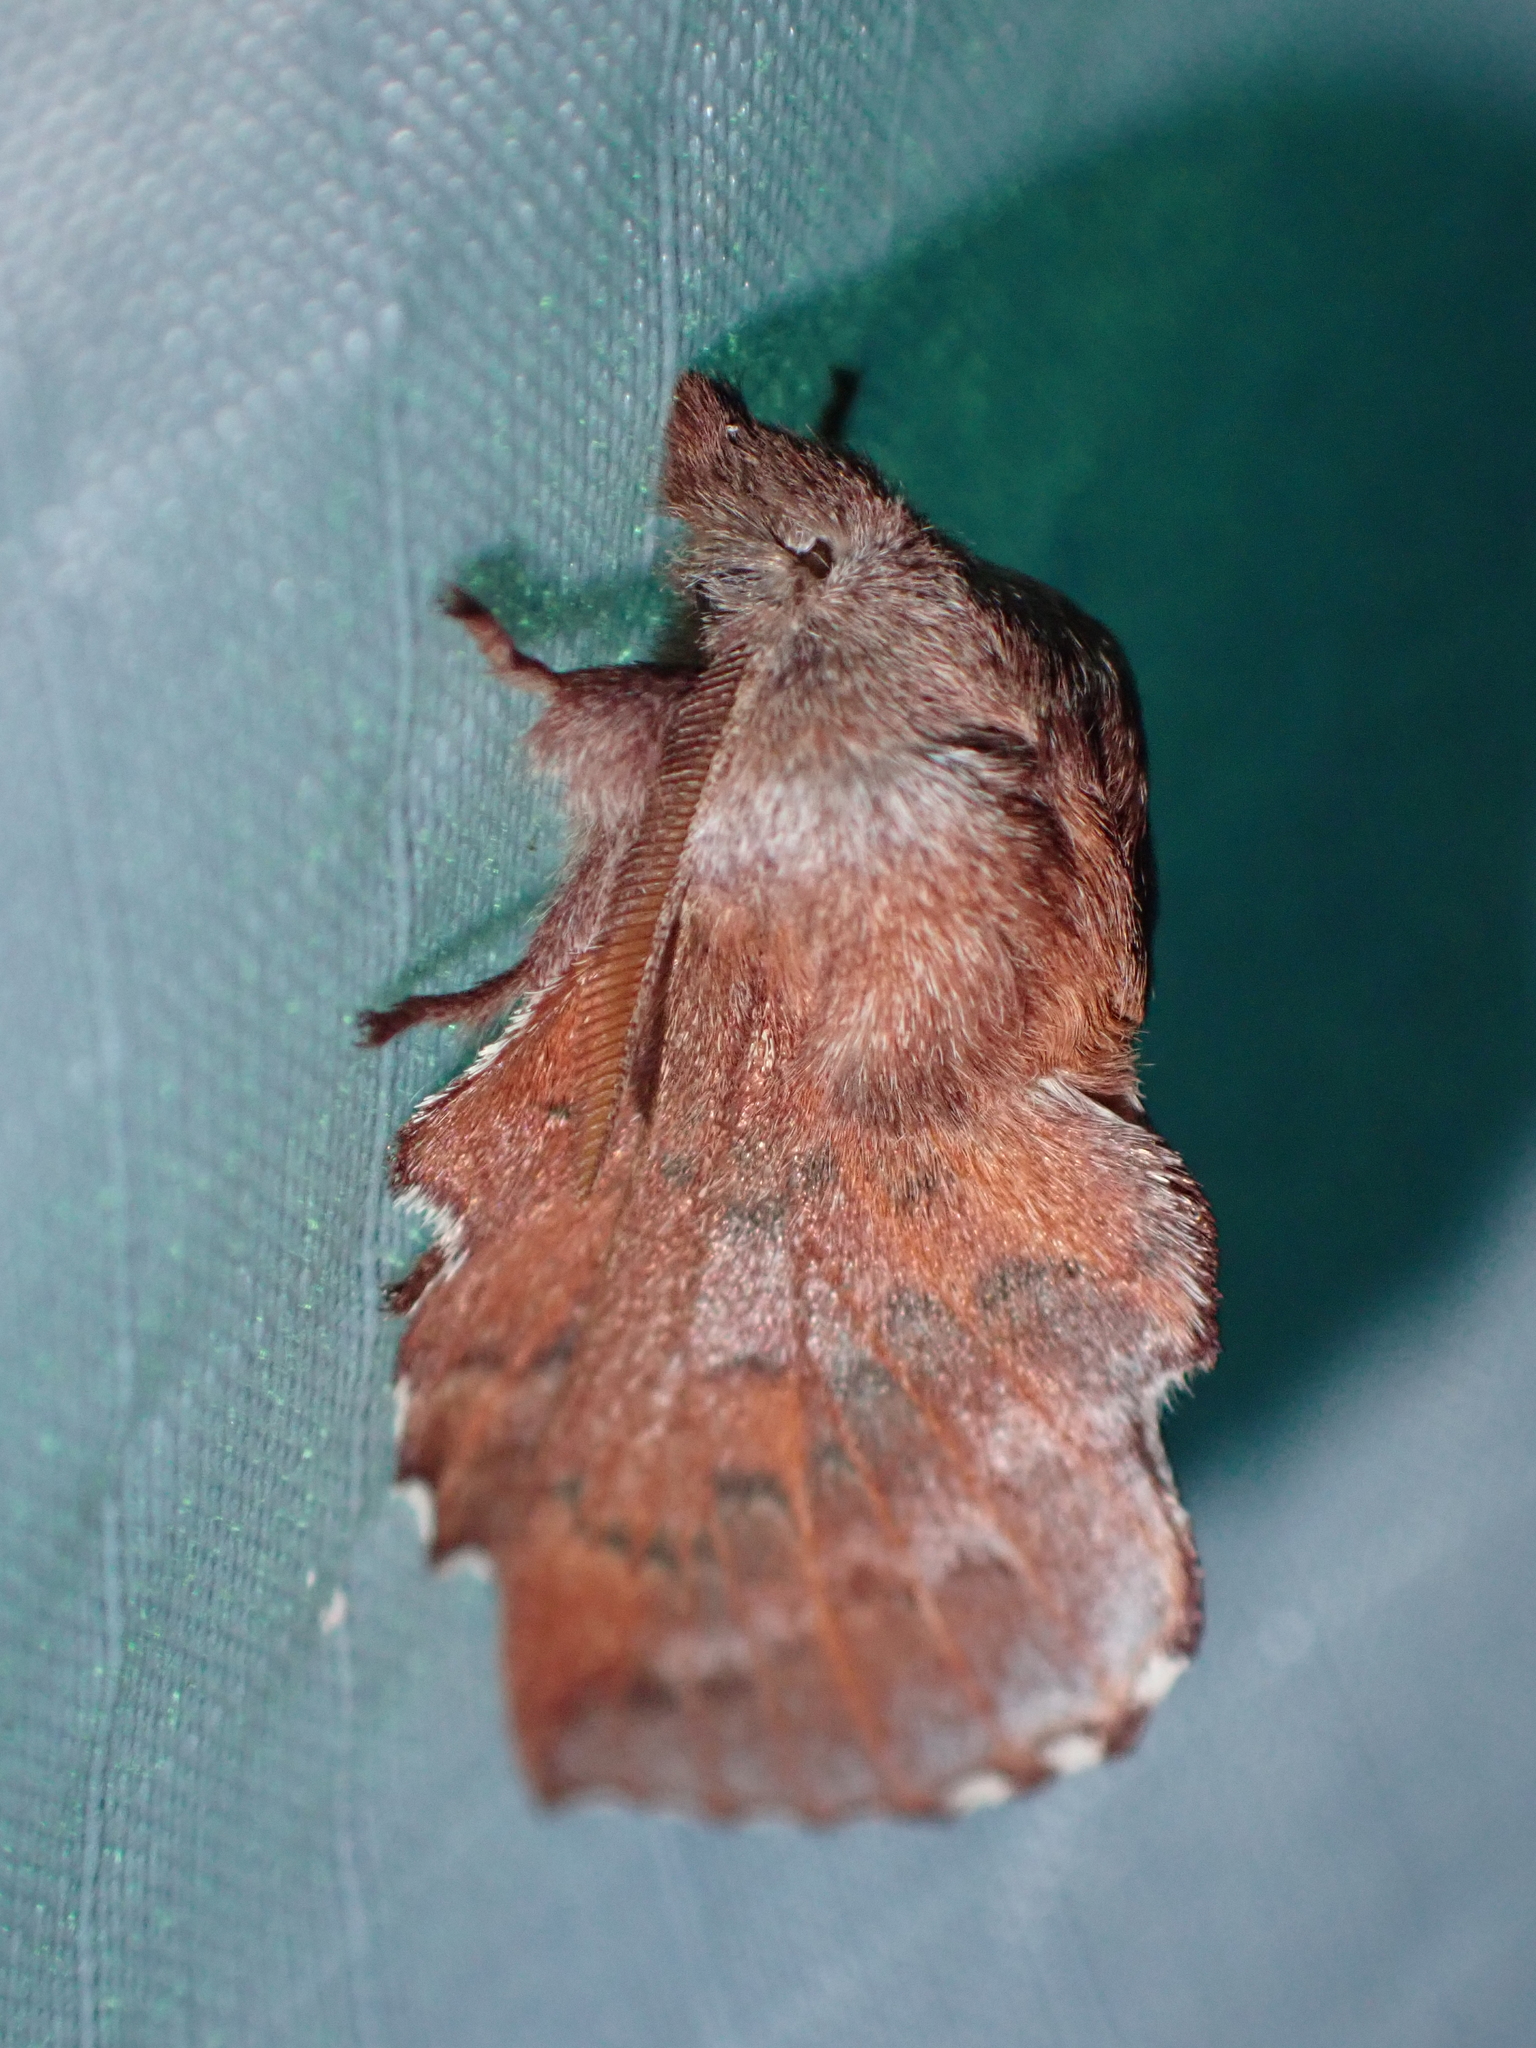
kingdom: Animalia
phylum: Arthropoda
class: Insecta
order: Lepidoptera
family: Lasiocampidae
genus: Phyllodesma
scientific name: Phyllodesma americana
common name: American lappet moth
